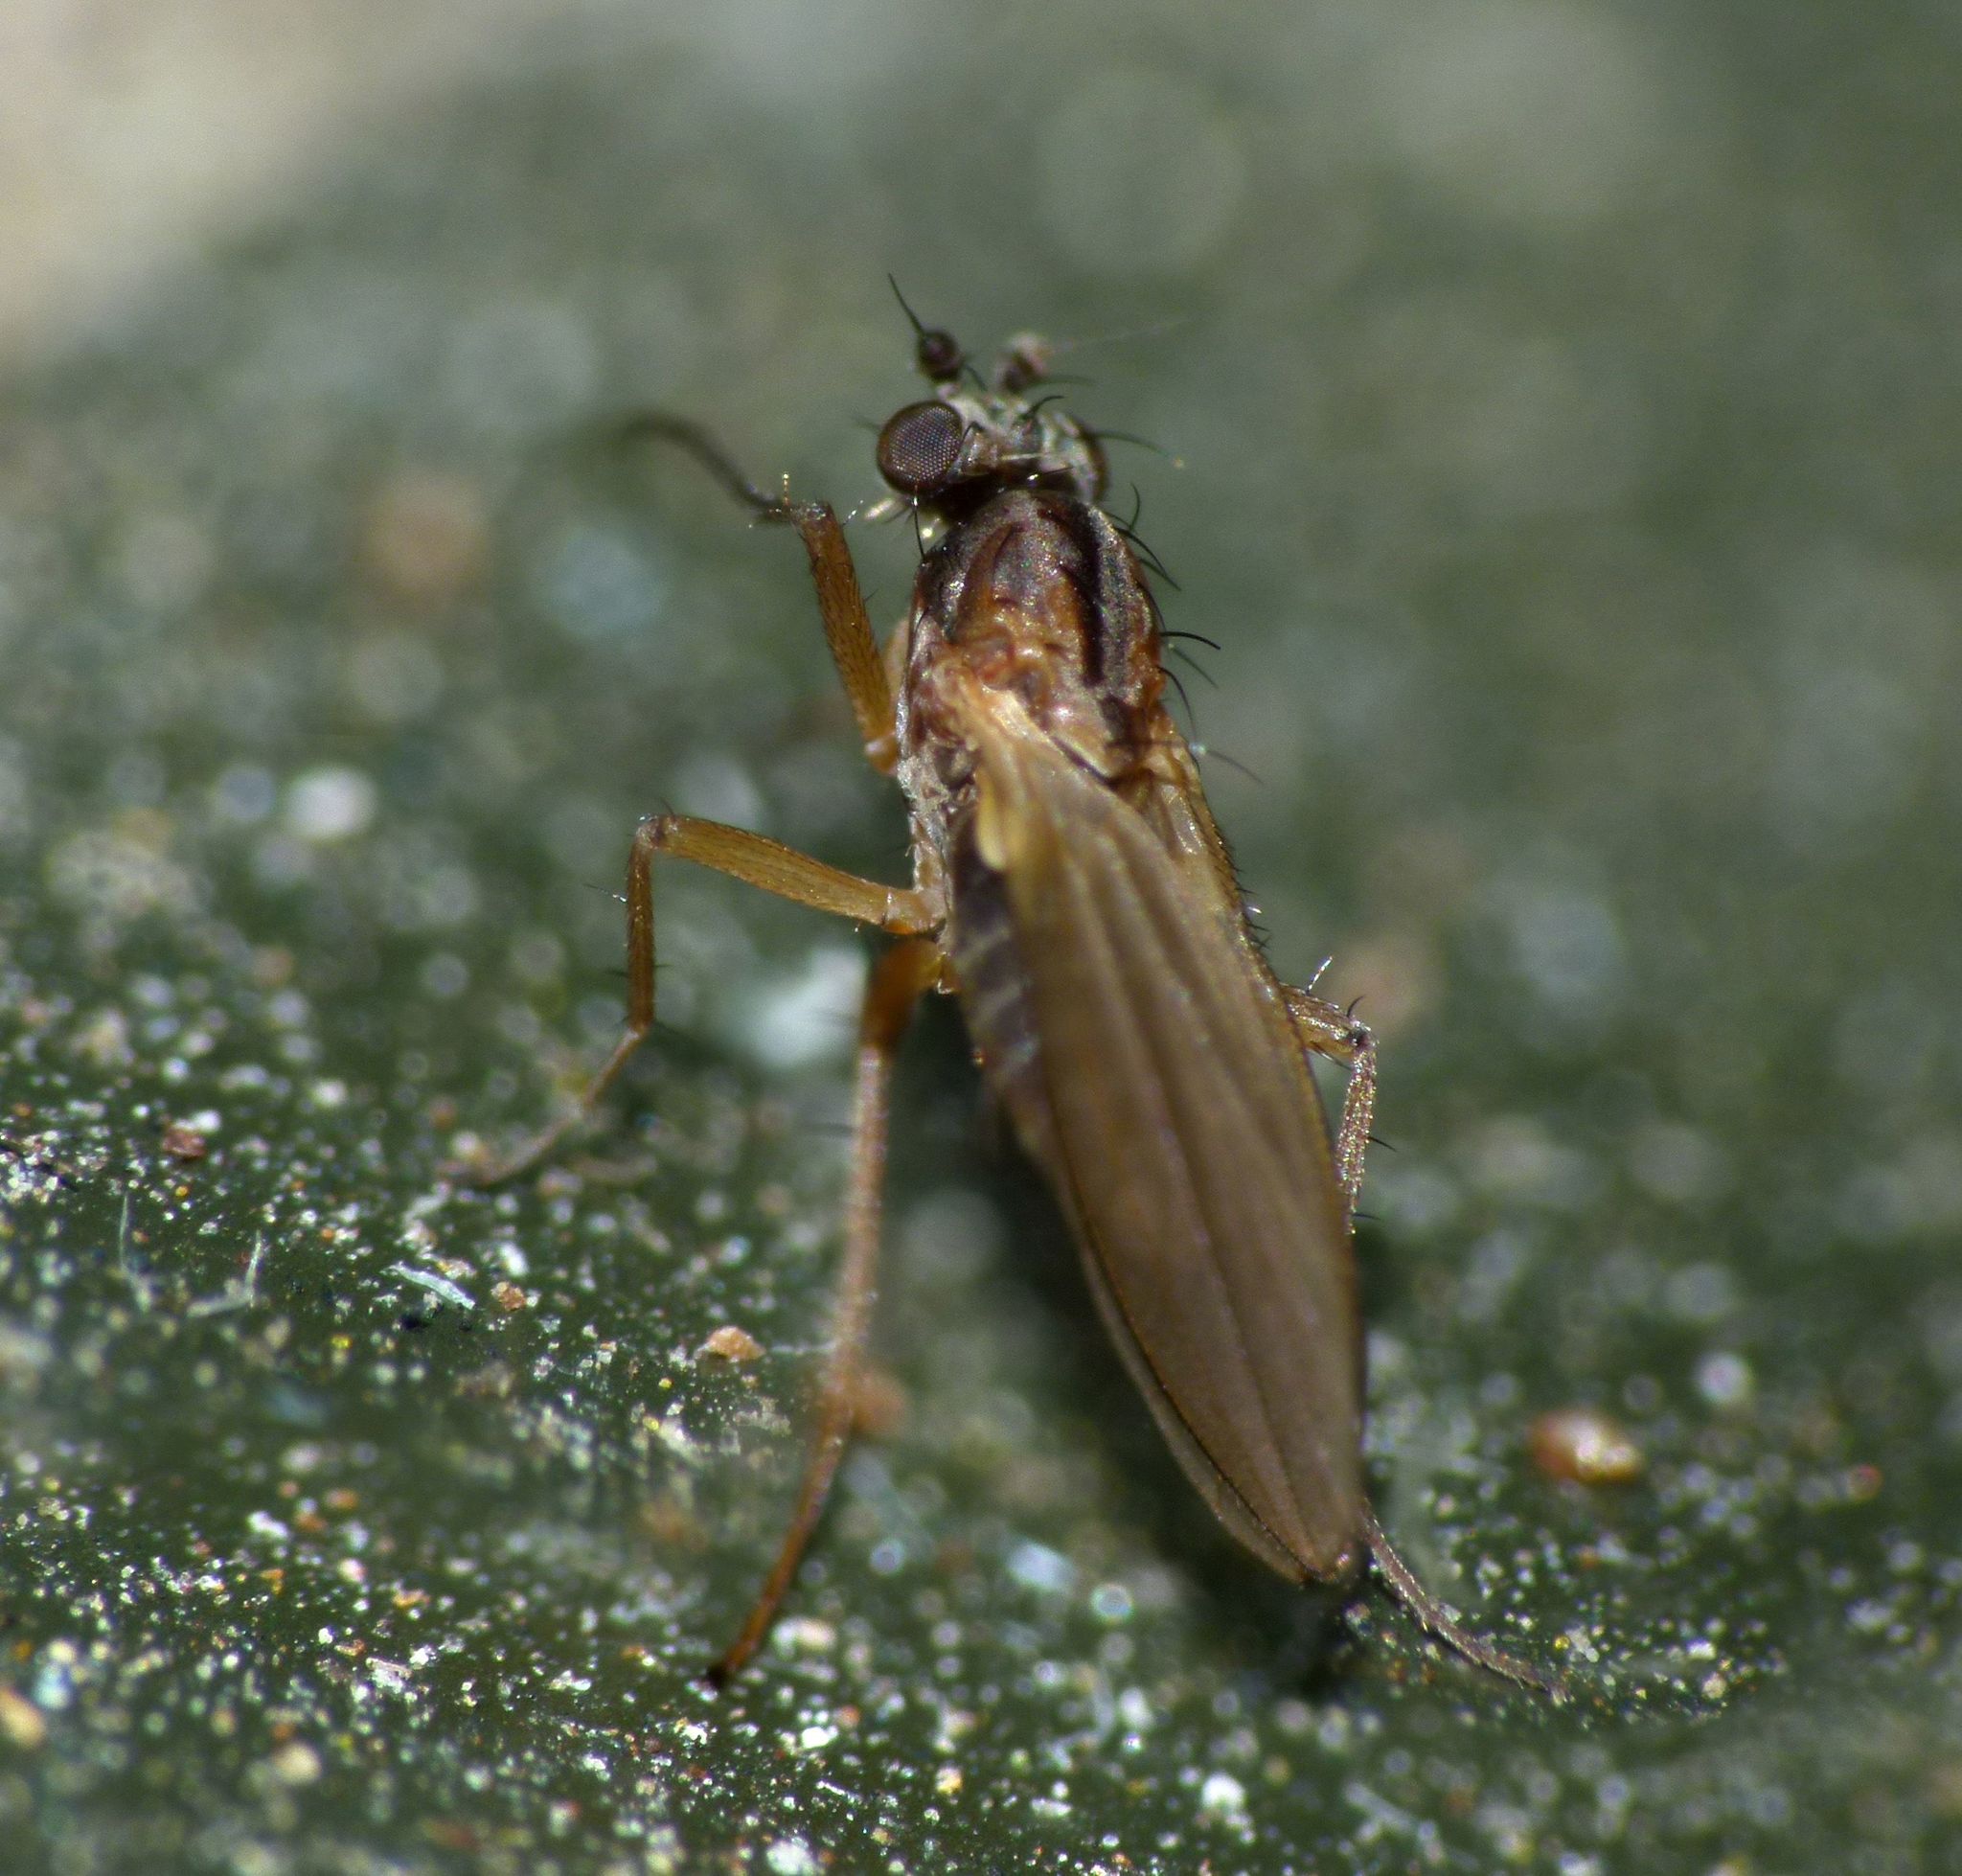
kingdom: Animalia
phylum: Arthropoda
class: Insecta
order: Diptera
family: Lonchopteridae
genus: Lonchoptera
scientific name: Lonchoptera bifurcata
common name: Spear-winged fly
